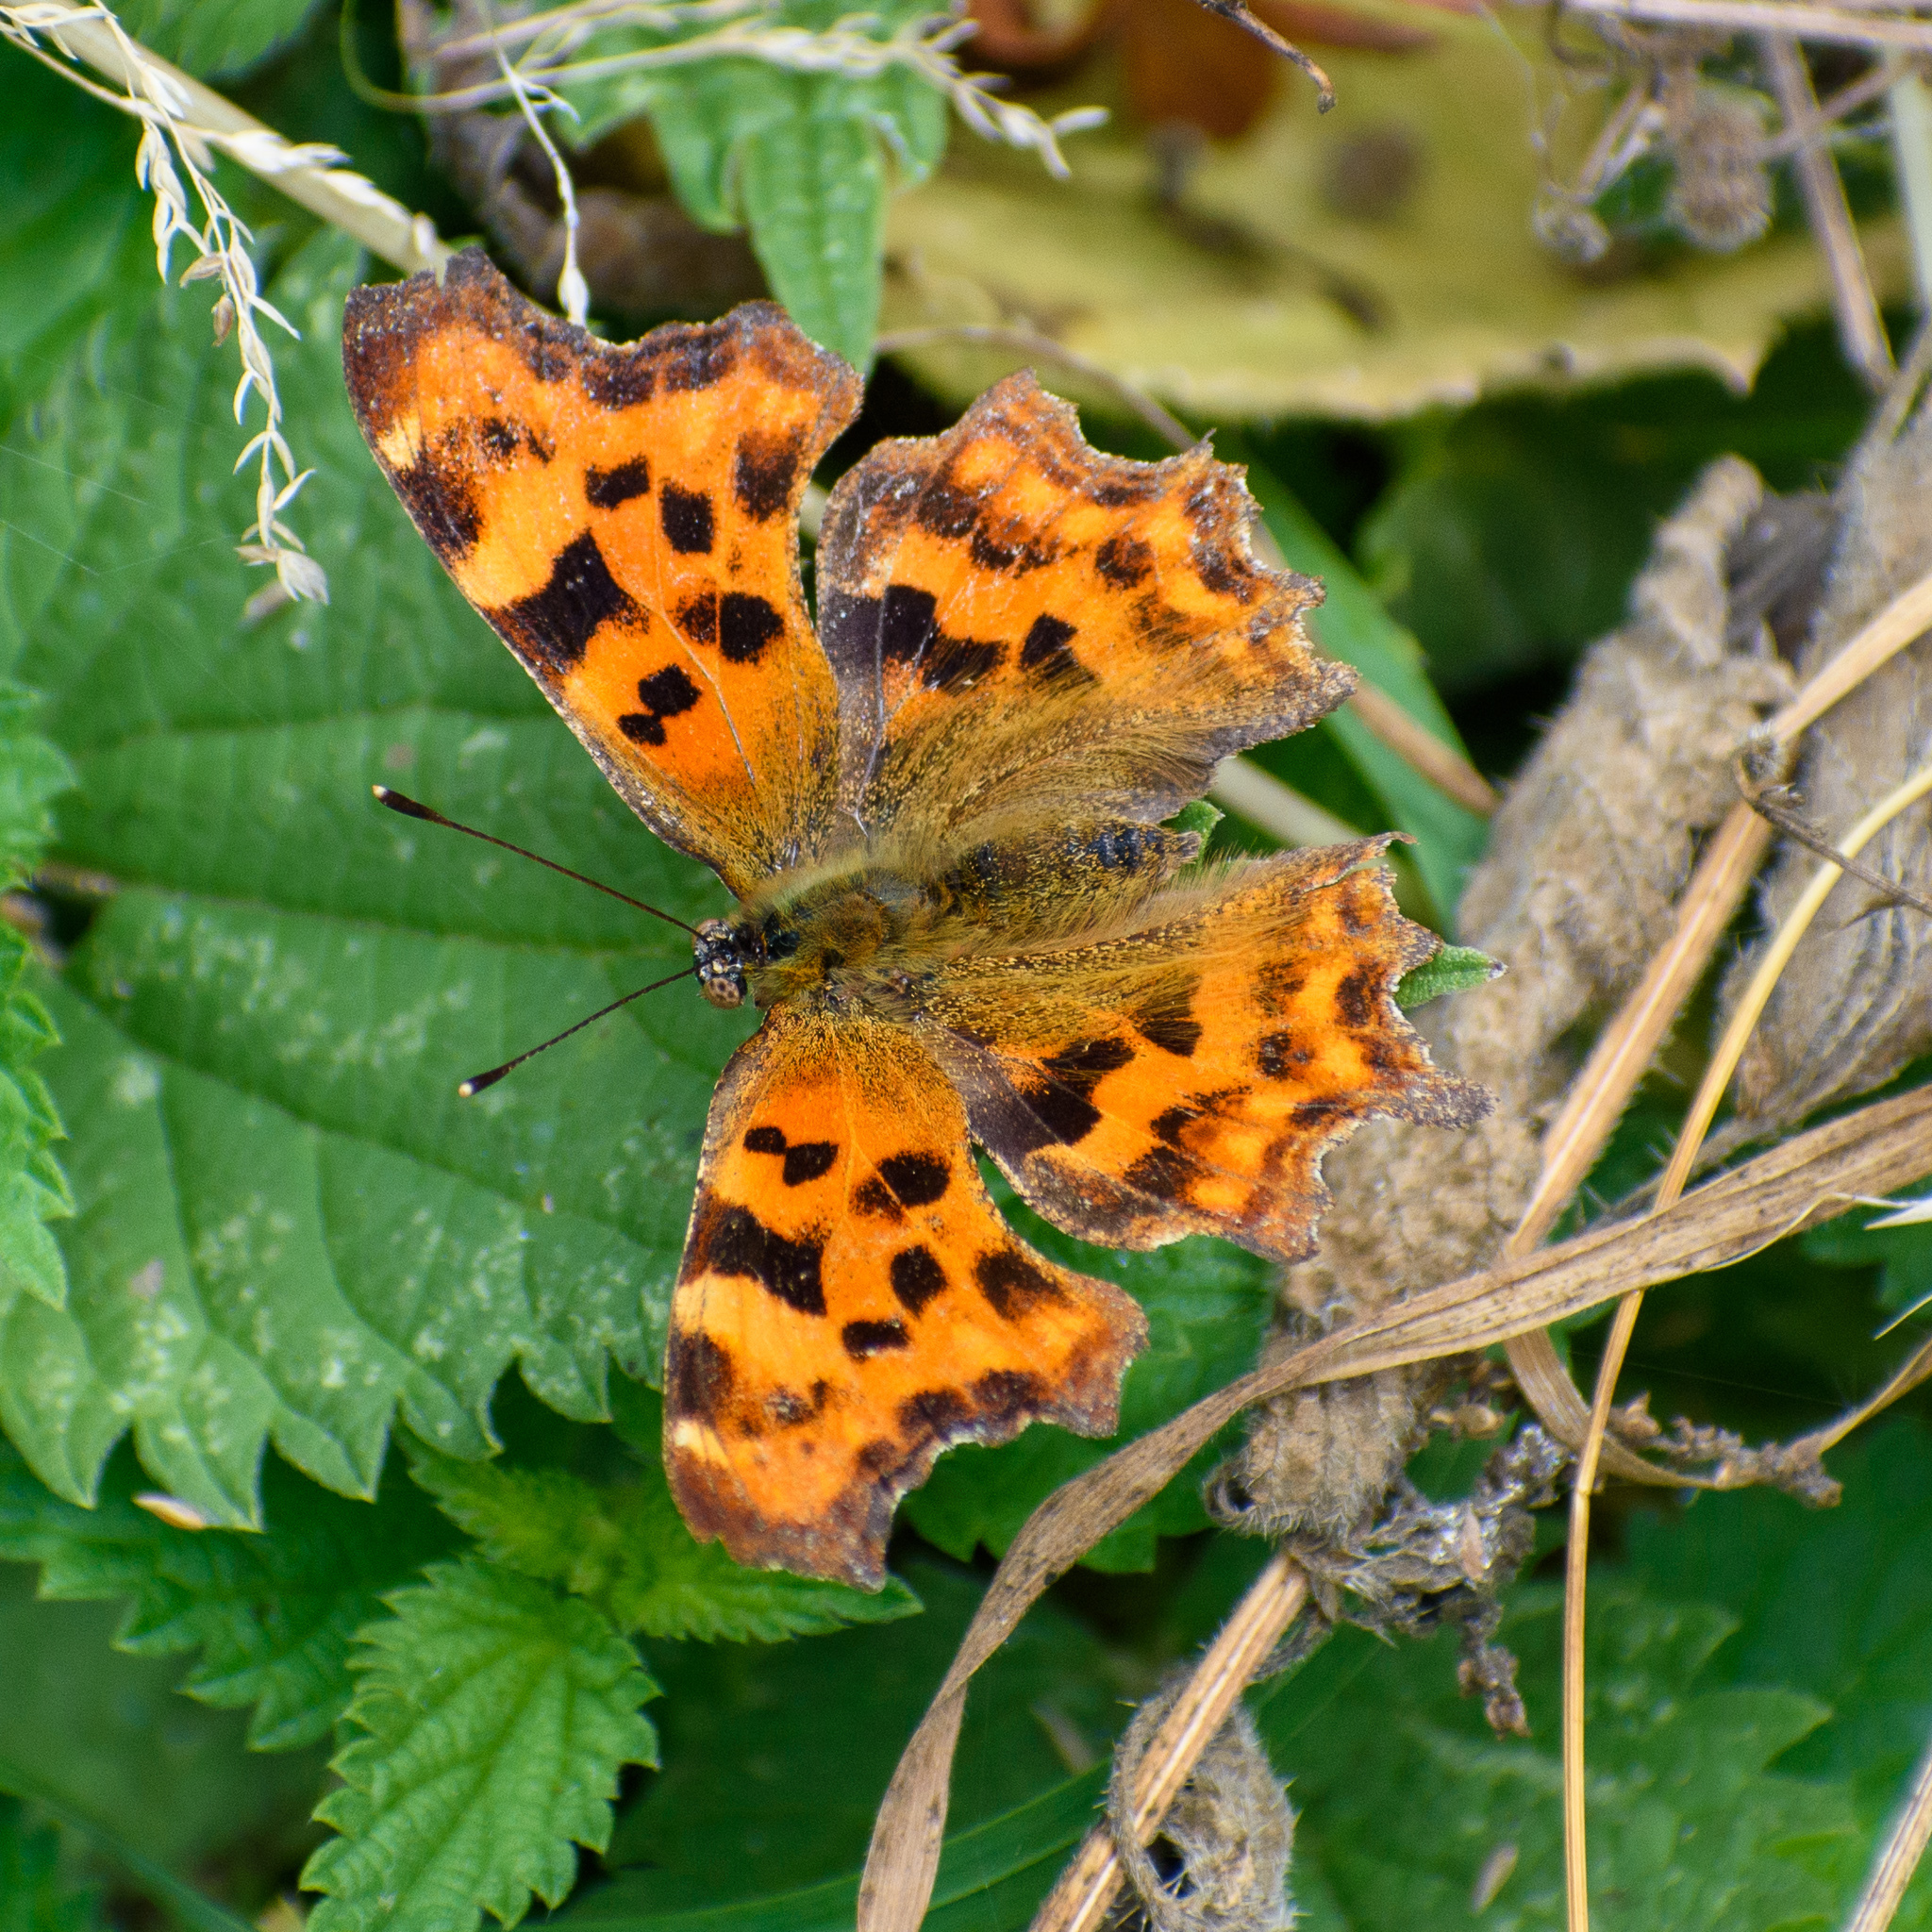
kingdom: Animalia
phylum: Arthropoda
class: Insecta
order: Lepidoptera
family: Nymphalidae
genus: Polygonia
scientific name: Polygonia c-album
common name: Comma
